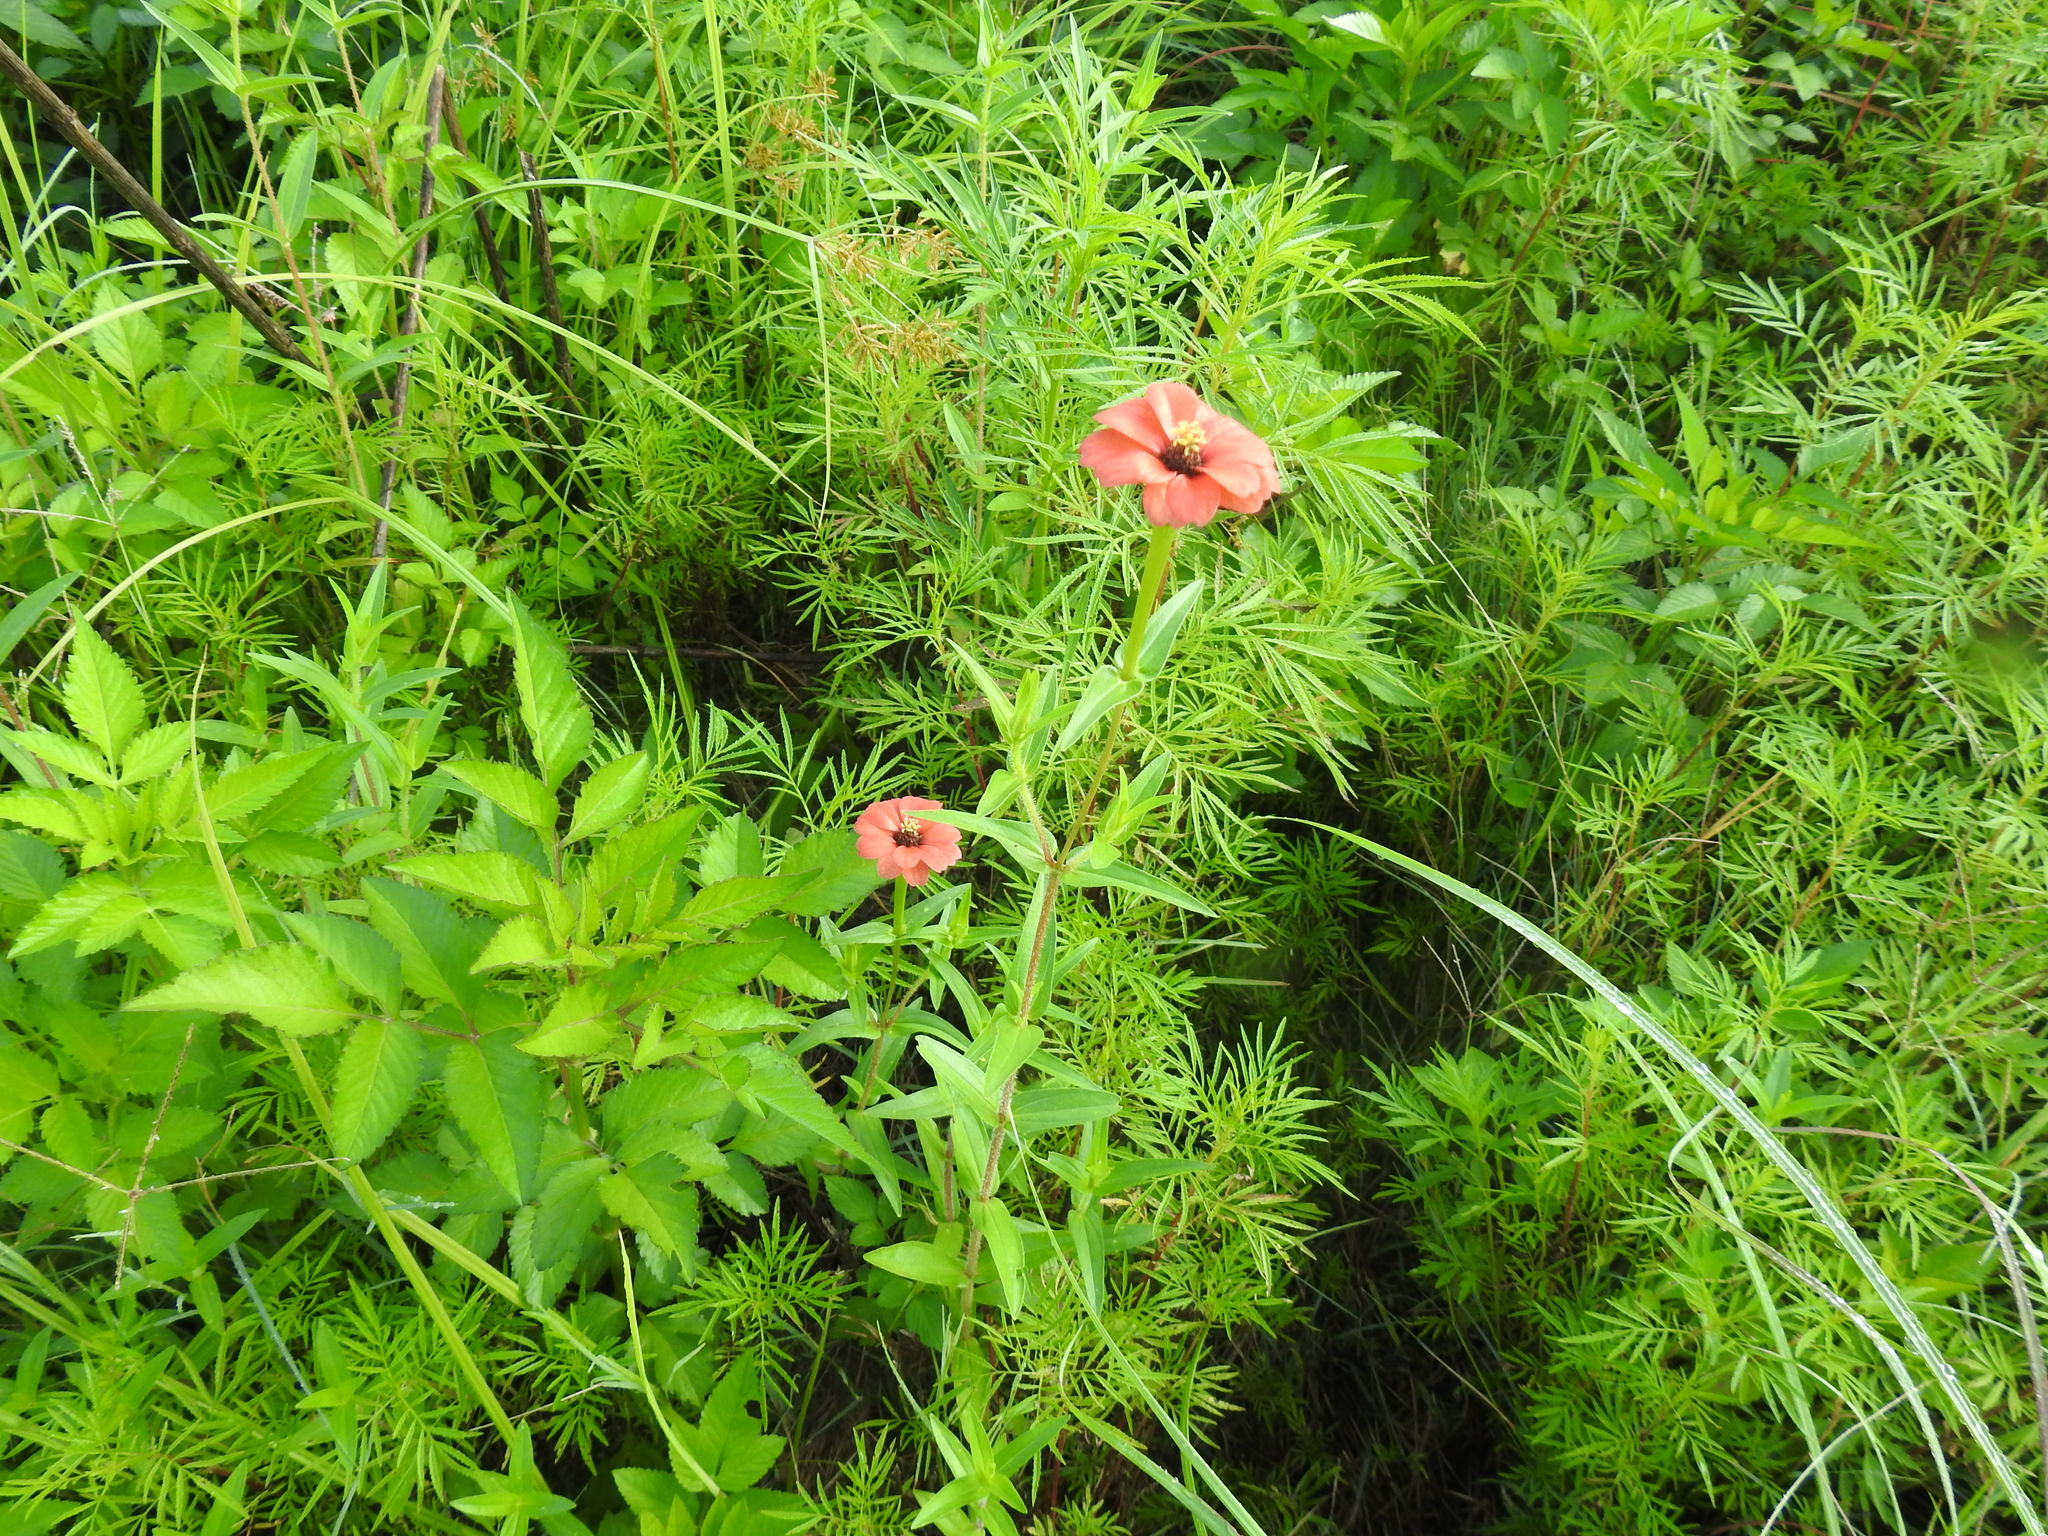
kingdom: Plantae
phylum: Tracheophyta
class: Magnoliopsida
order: Asterales
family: Asteraceae
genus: Zinnia
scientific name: Zinnia peruviana
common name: Peruvian zinnia
